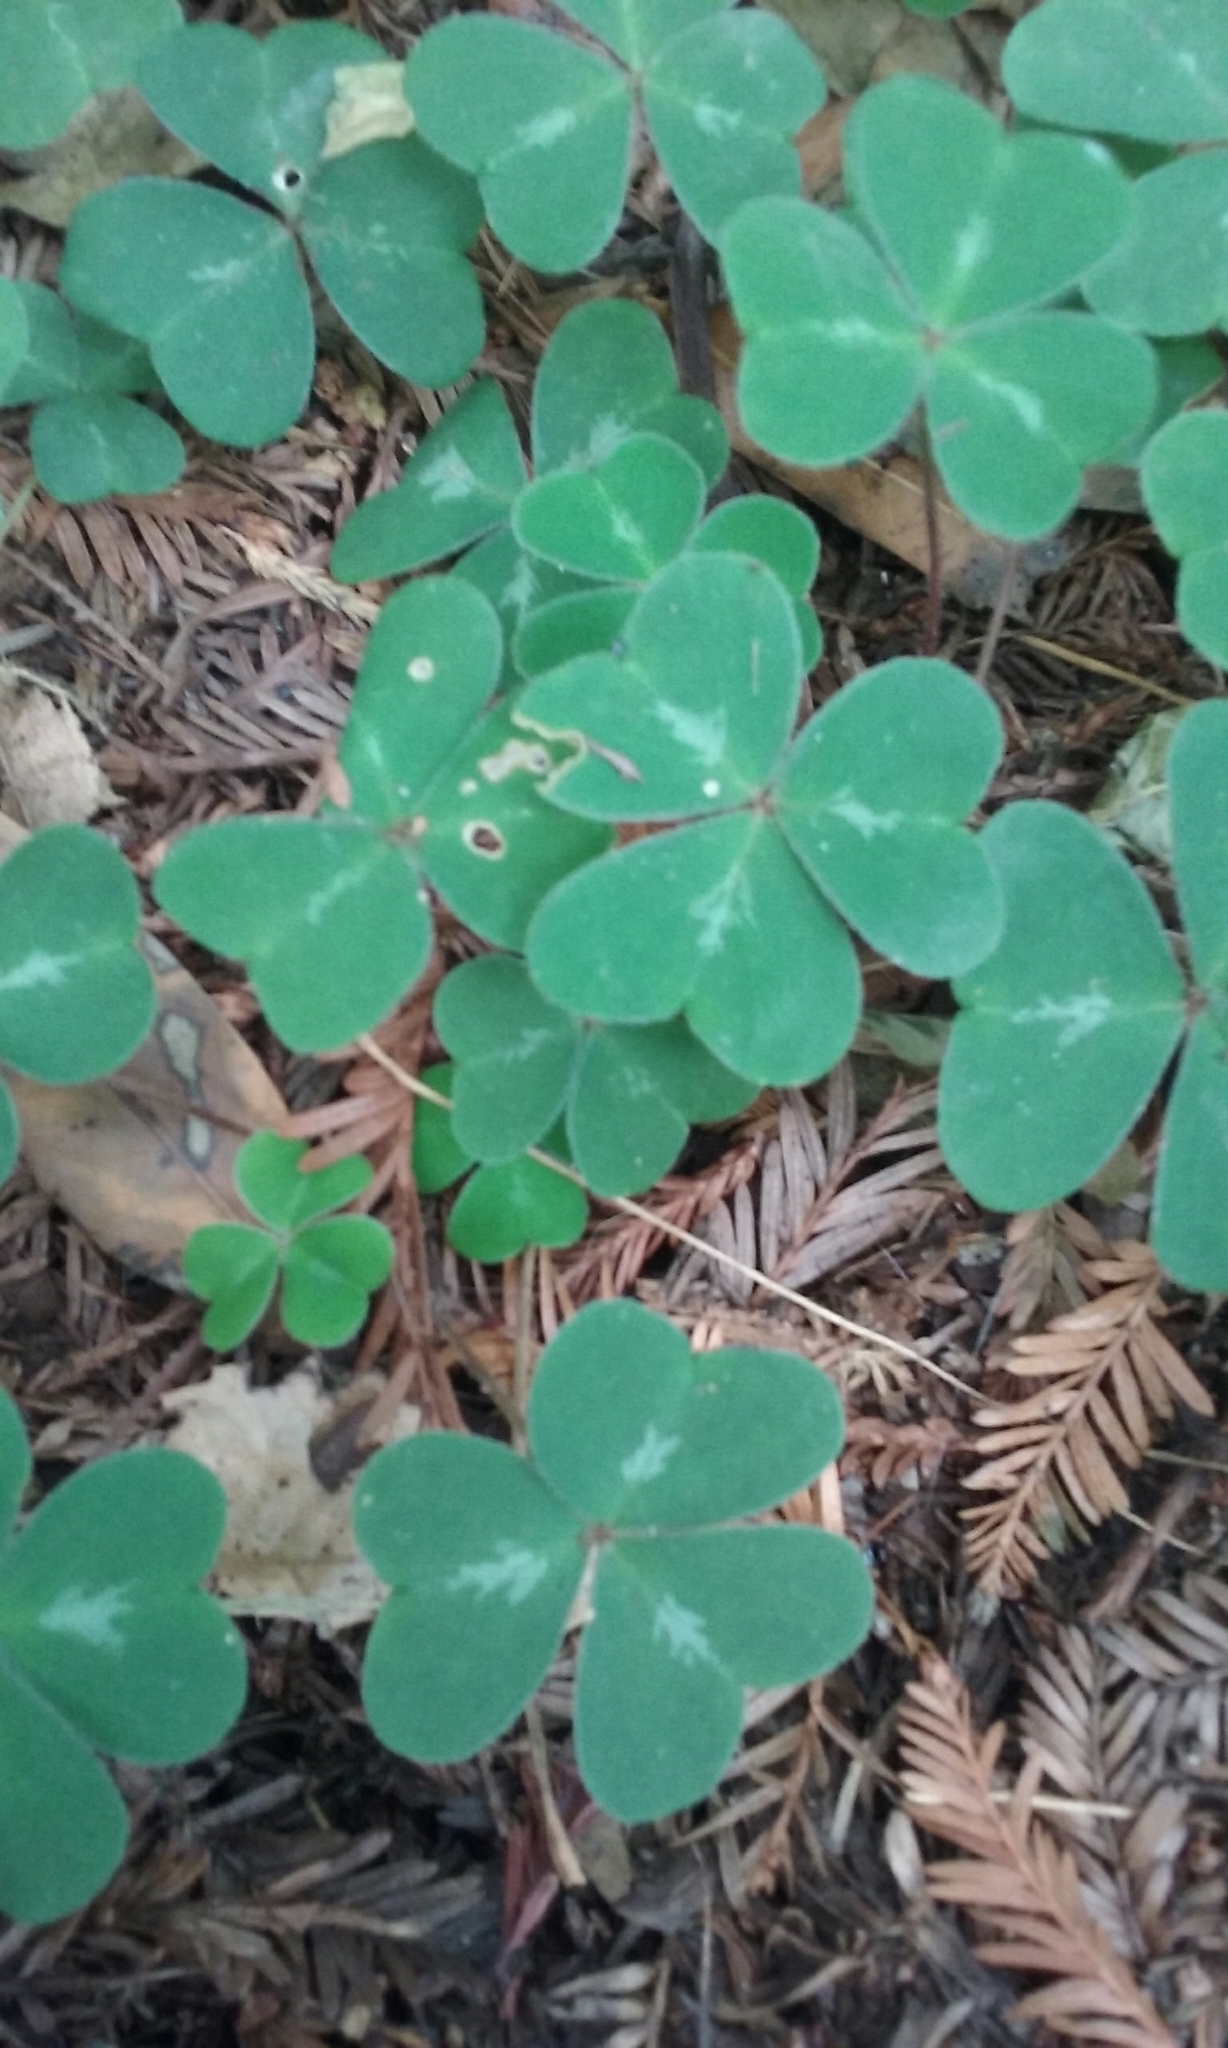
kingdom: Plantae
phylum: Tracheophyta
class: Magnoliopsida
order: Oxalidales
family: Oxalidaceae
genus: Oxalis
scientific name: Oxalis oregana
